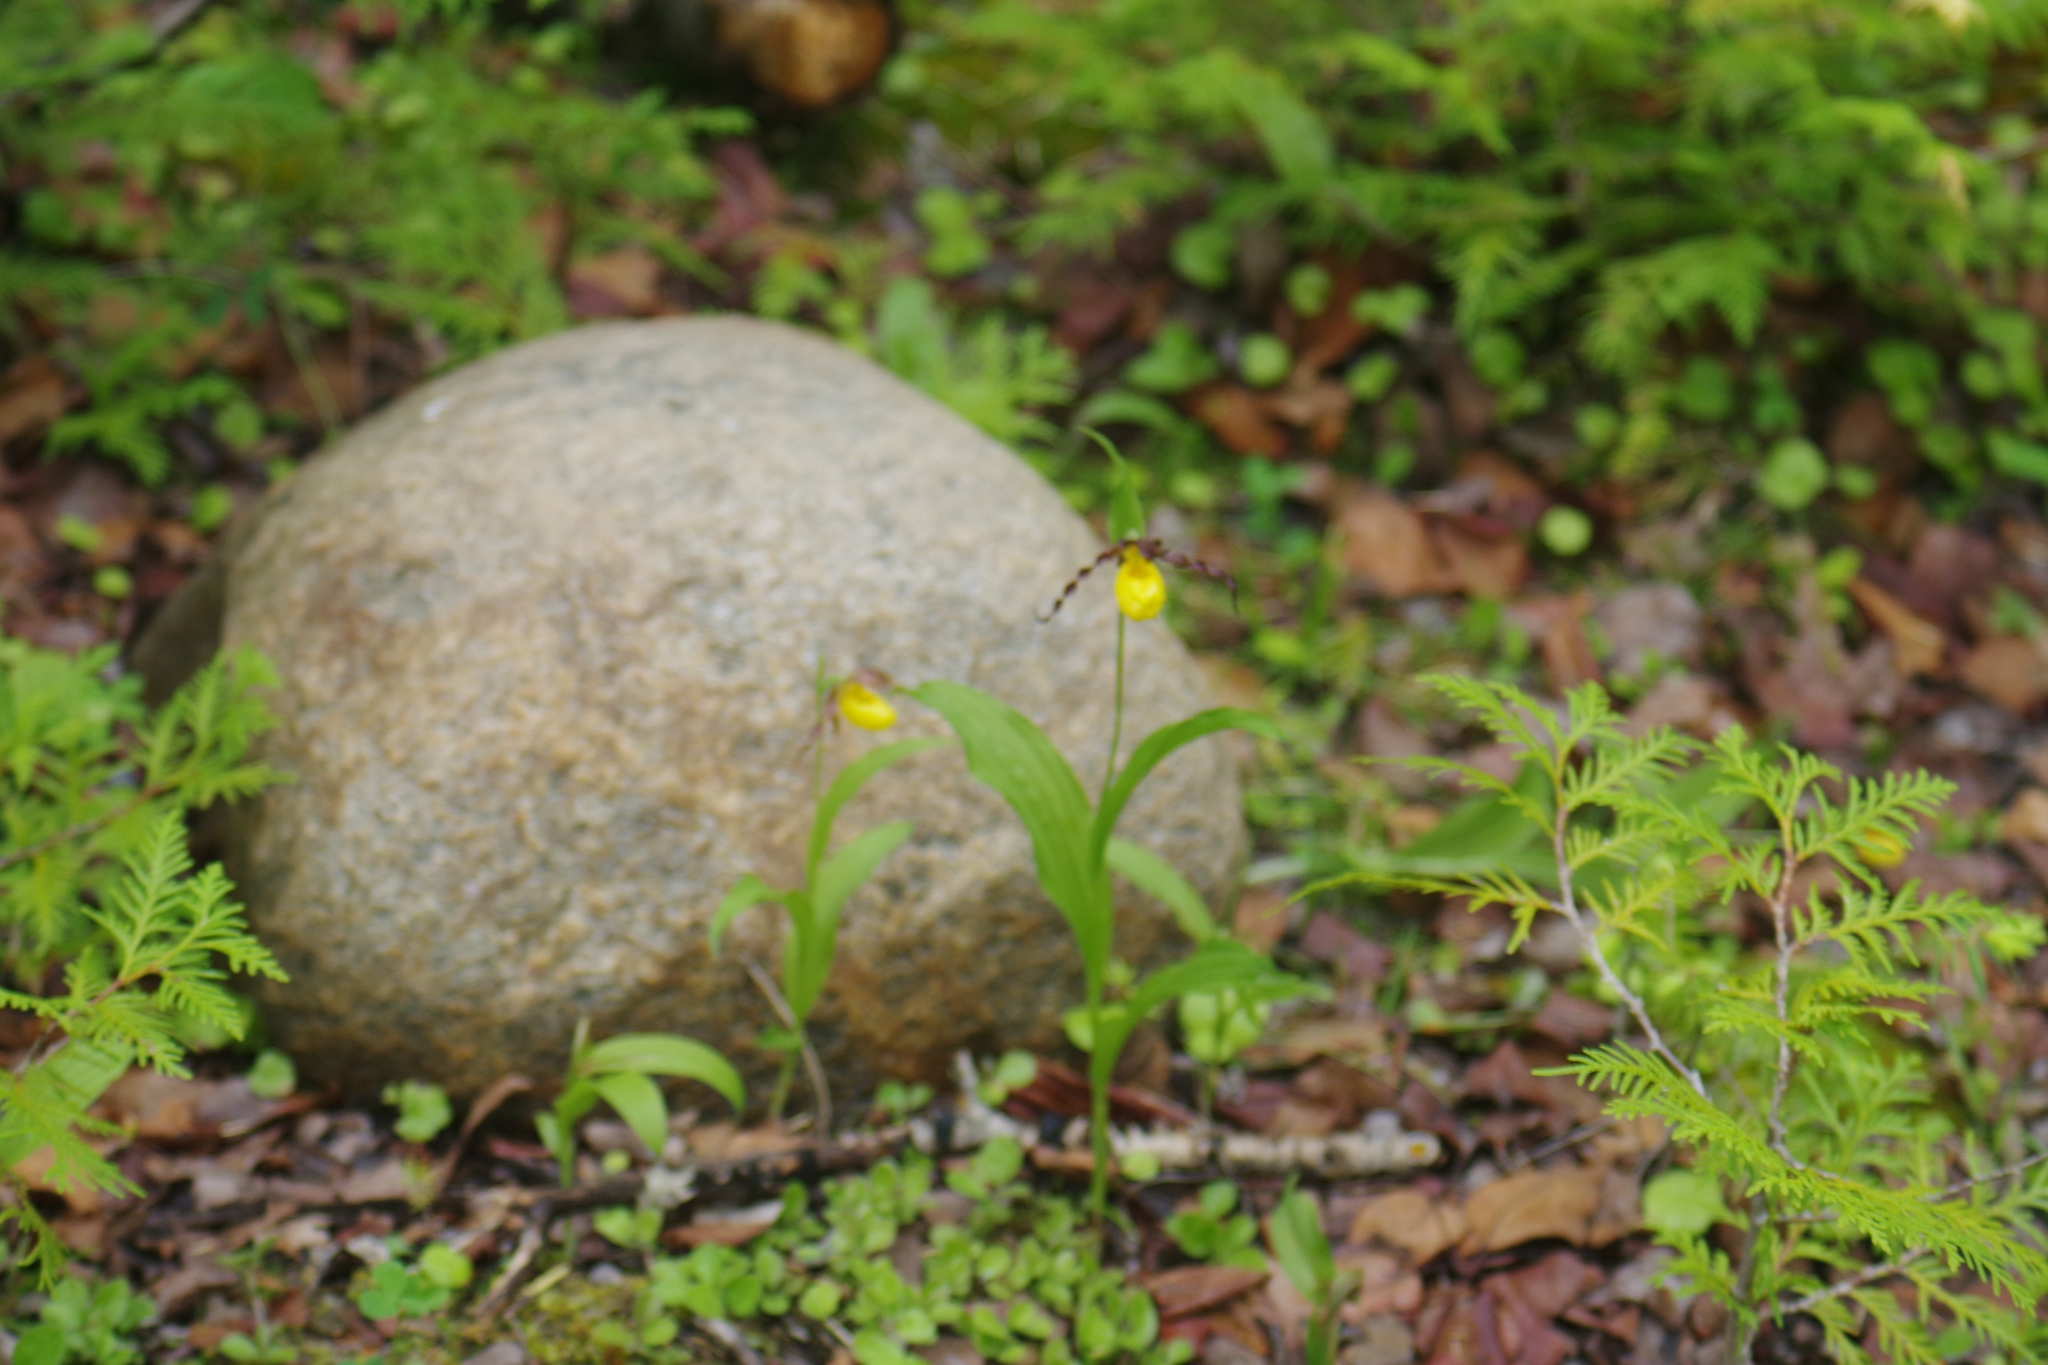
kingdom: Plantae
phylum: Tracheophyta
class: Liliopsida
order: Asparagales
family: Orchidaceae
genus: Cypripedium
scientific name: Cypripedium parviflorum
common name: American yellow lady's-slipper
